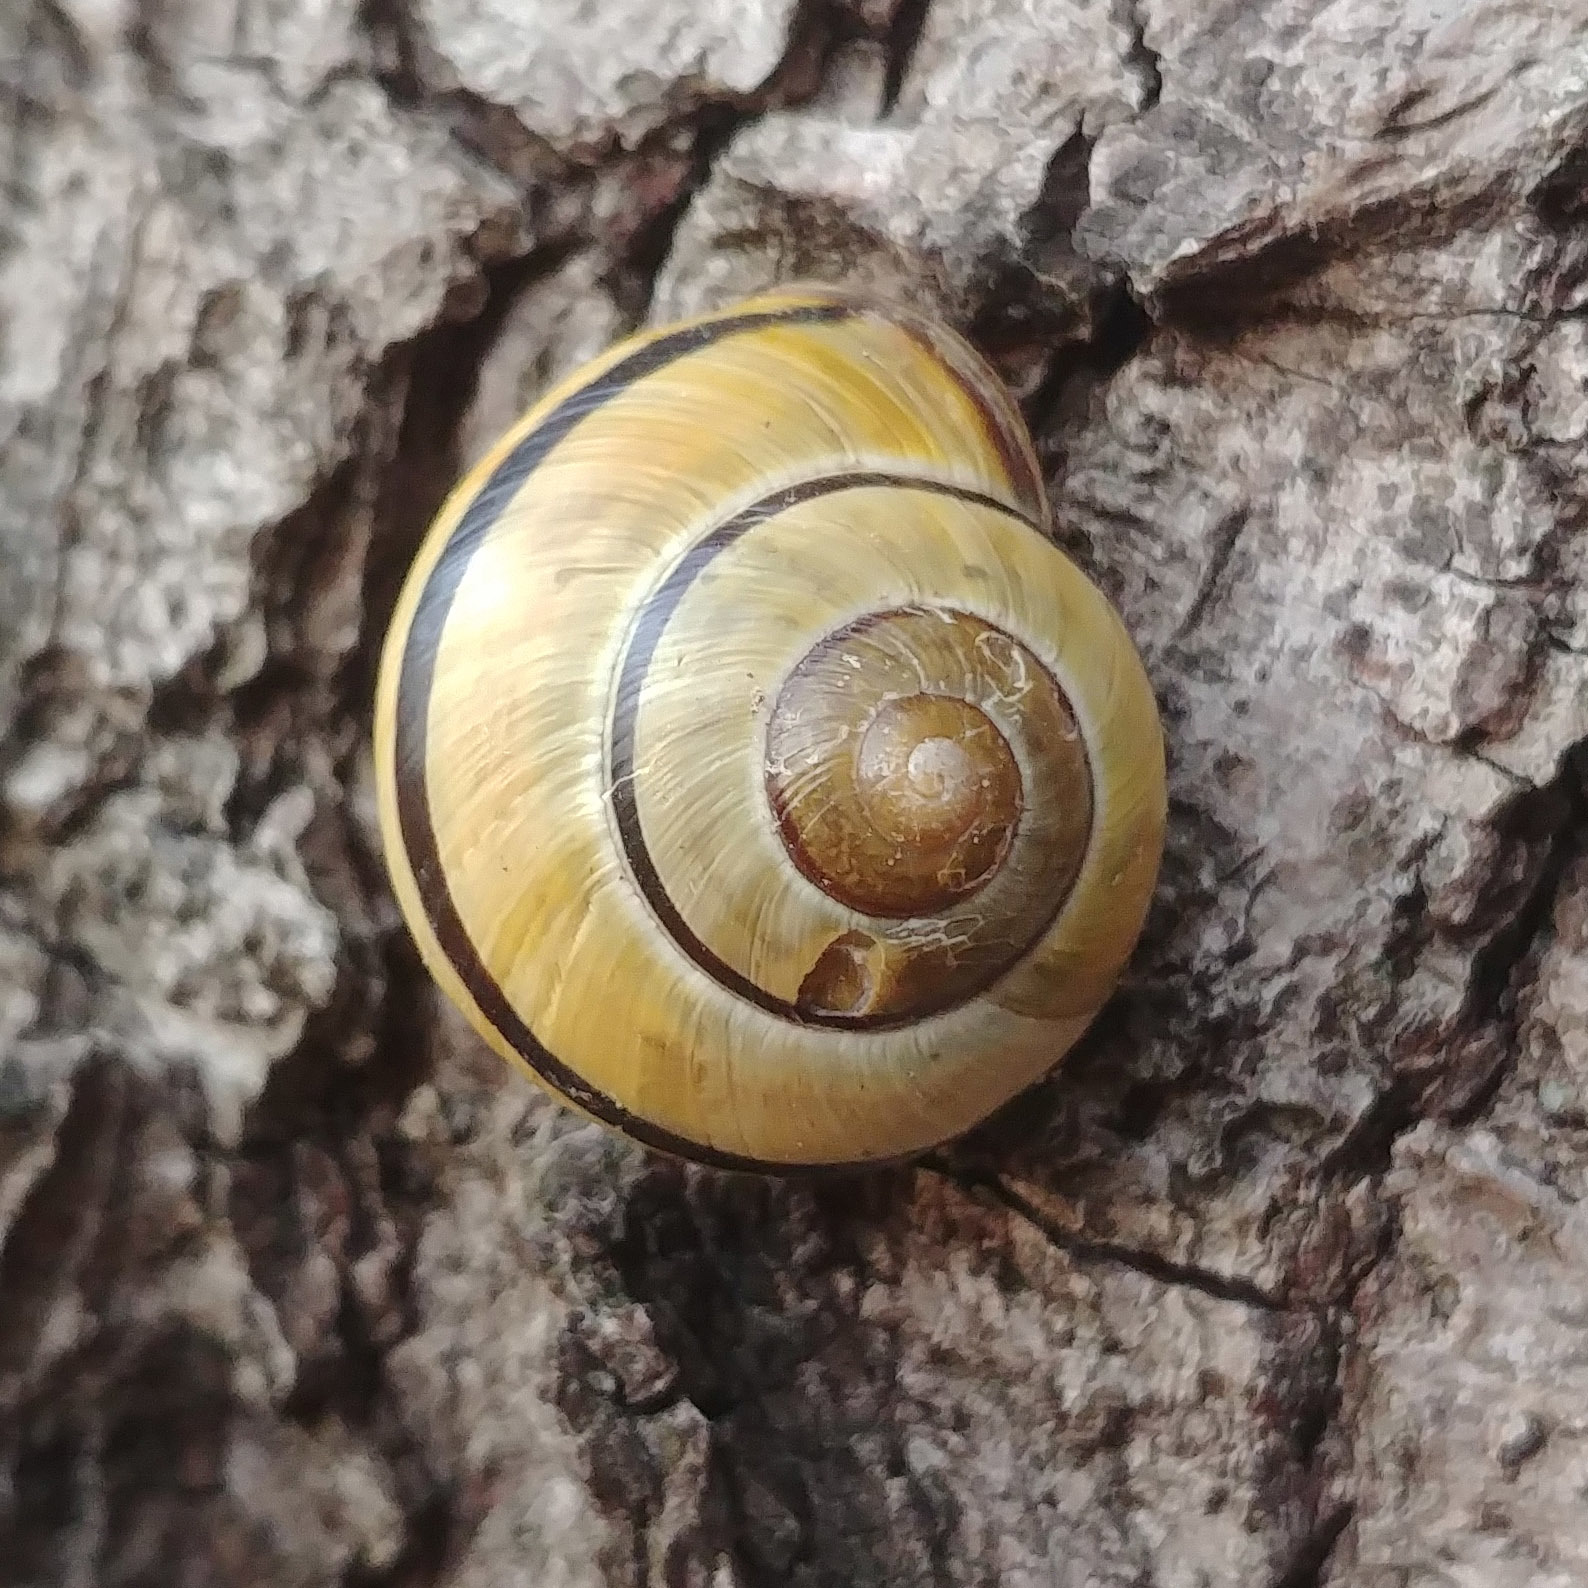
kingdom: Animalia
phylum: Mollusca
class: Gastropoda
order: Stylommatophora
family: Helicidae
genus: Cepaea
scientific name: Cepaea nemoralis
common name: Grovesnail
